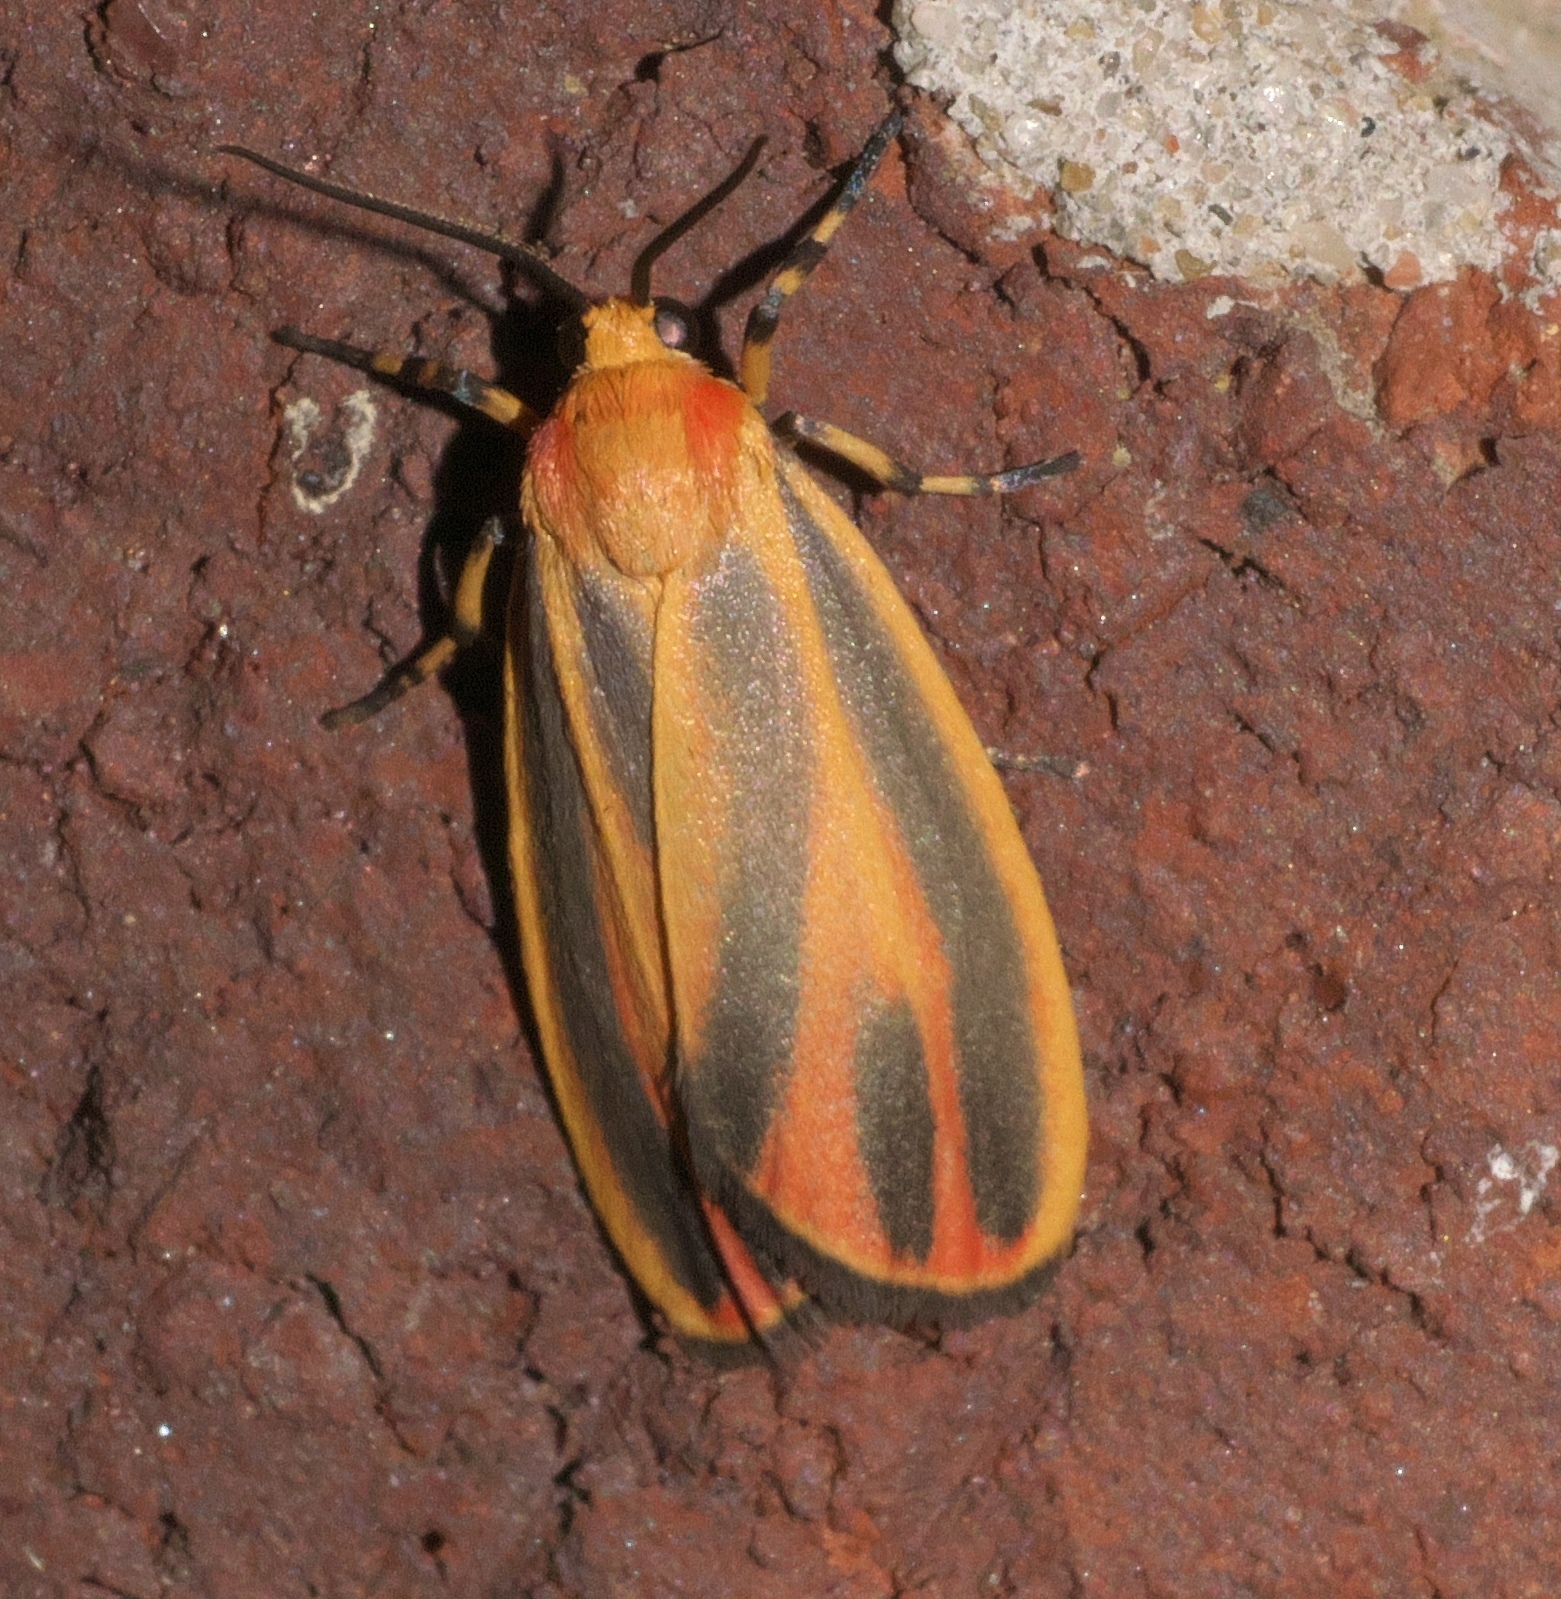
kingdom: Animalia
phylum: Arthropoda
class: Insecta
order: Lepidoptera
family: Erebidae
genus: Hypoprepia
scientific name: Hypoprepia fucosa
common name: Painted lichen moth
